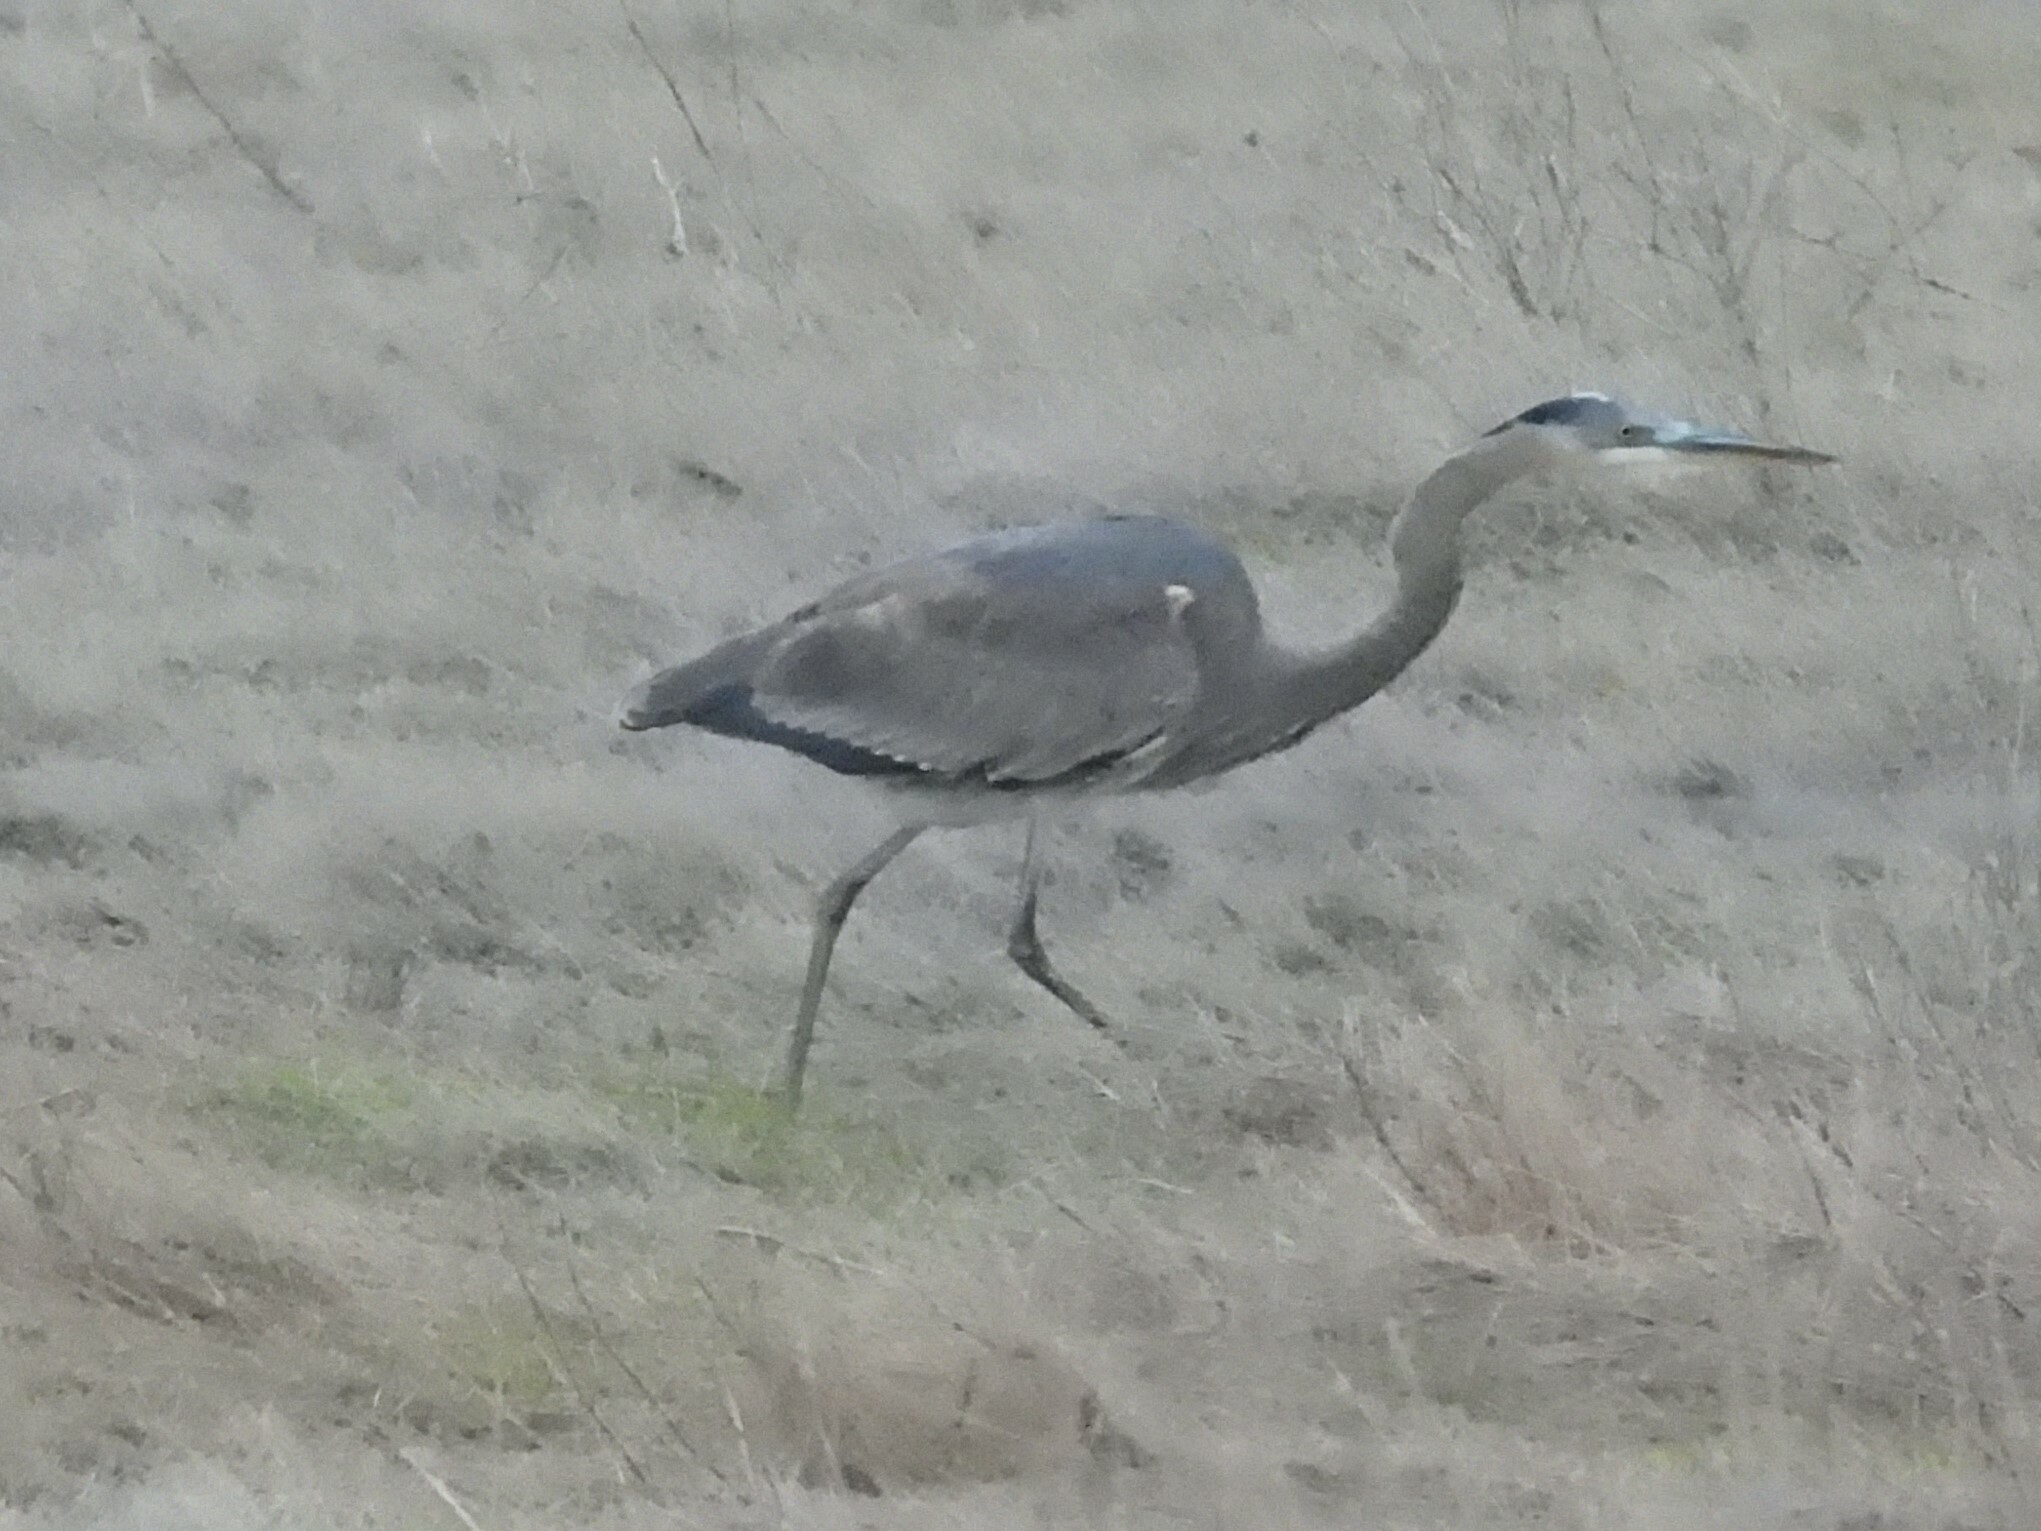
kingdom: Animalia
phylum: Chordata
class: Aves
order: Pelecaniformes
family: Ardeidae
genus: Ardea
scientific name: Ardea herodias
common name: Great blue heron
